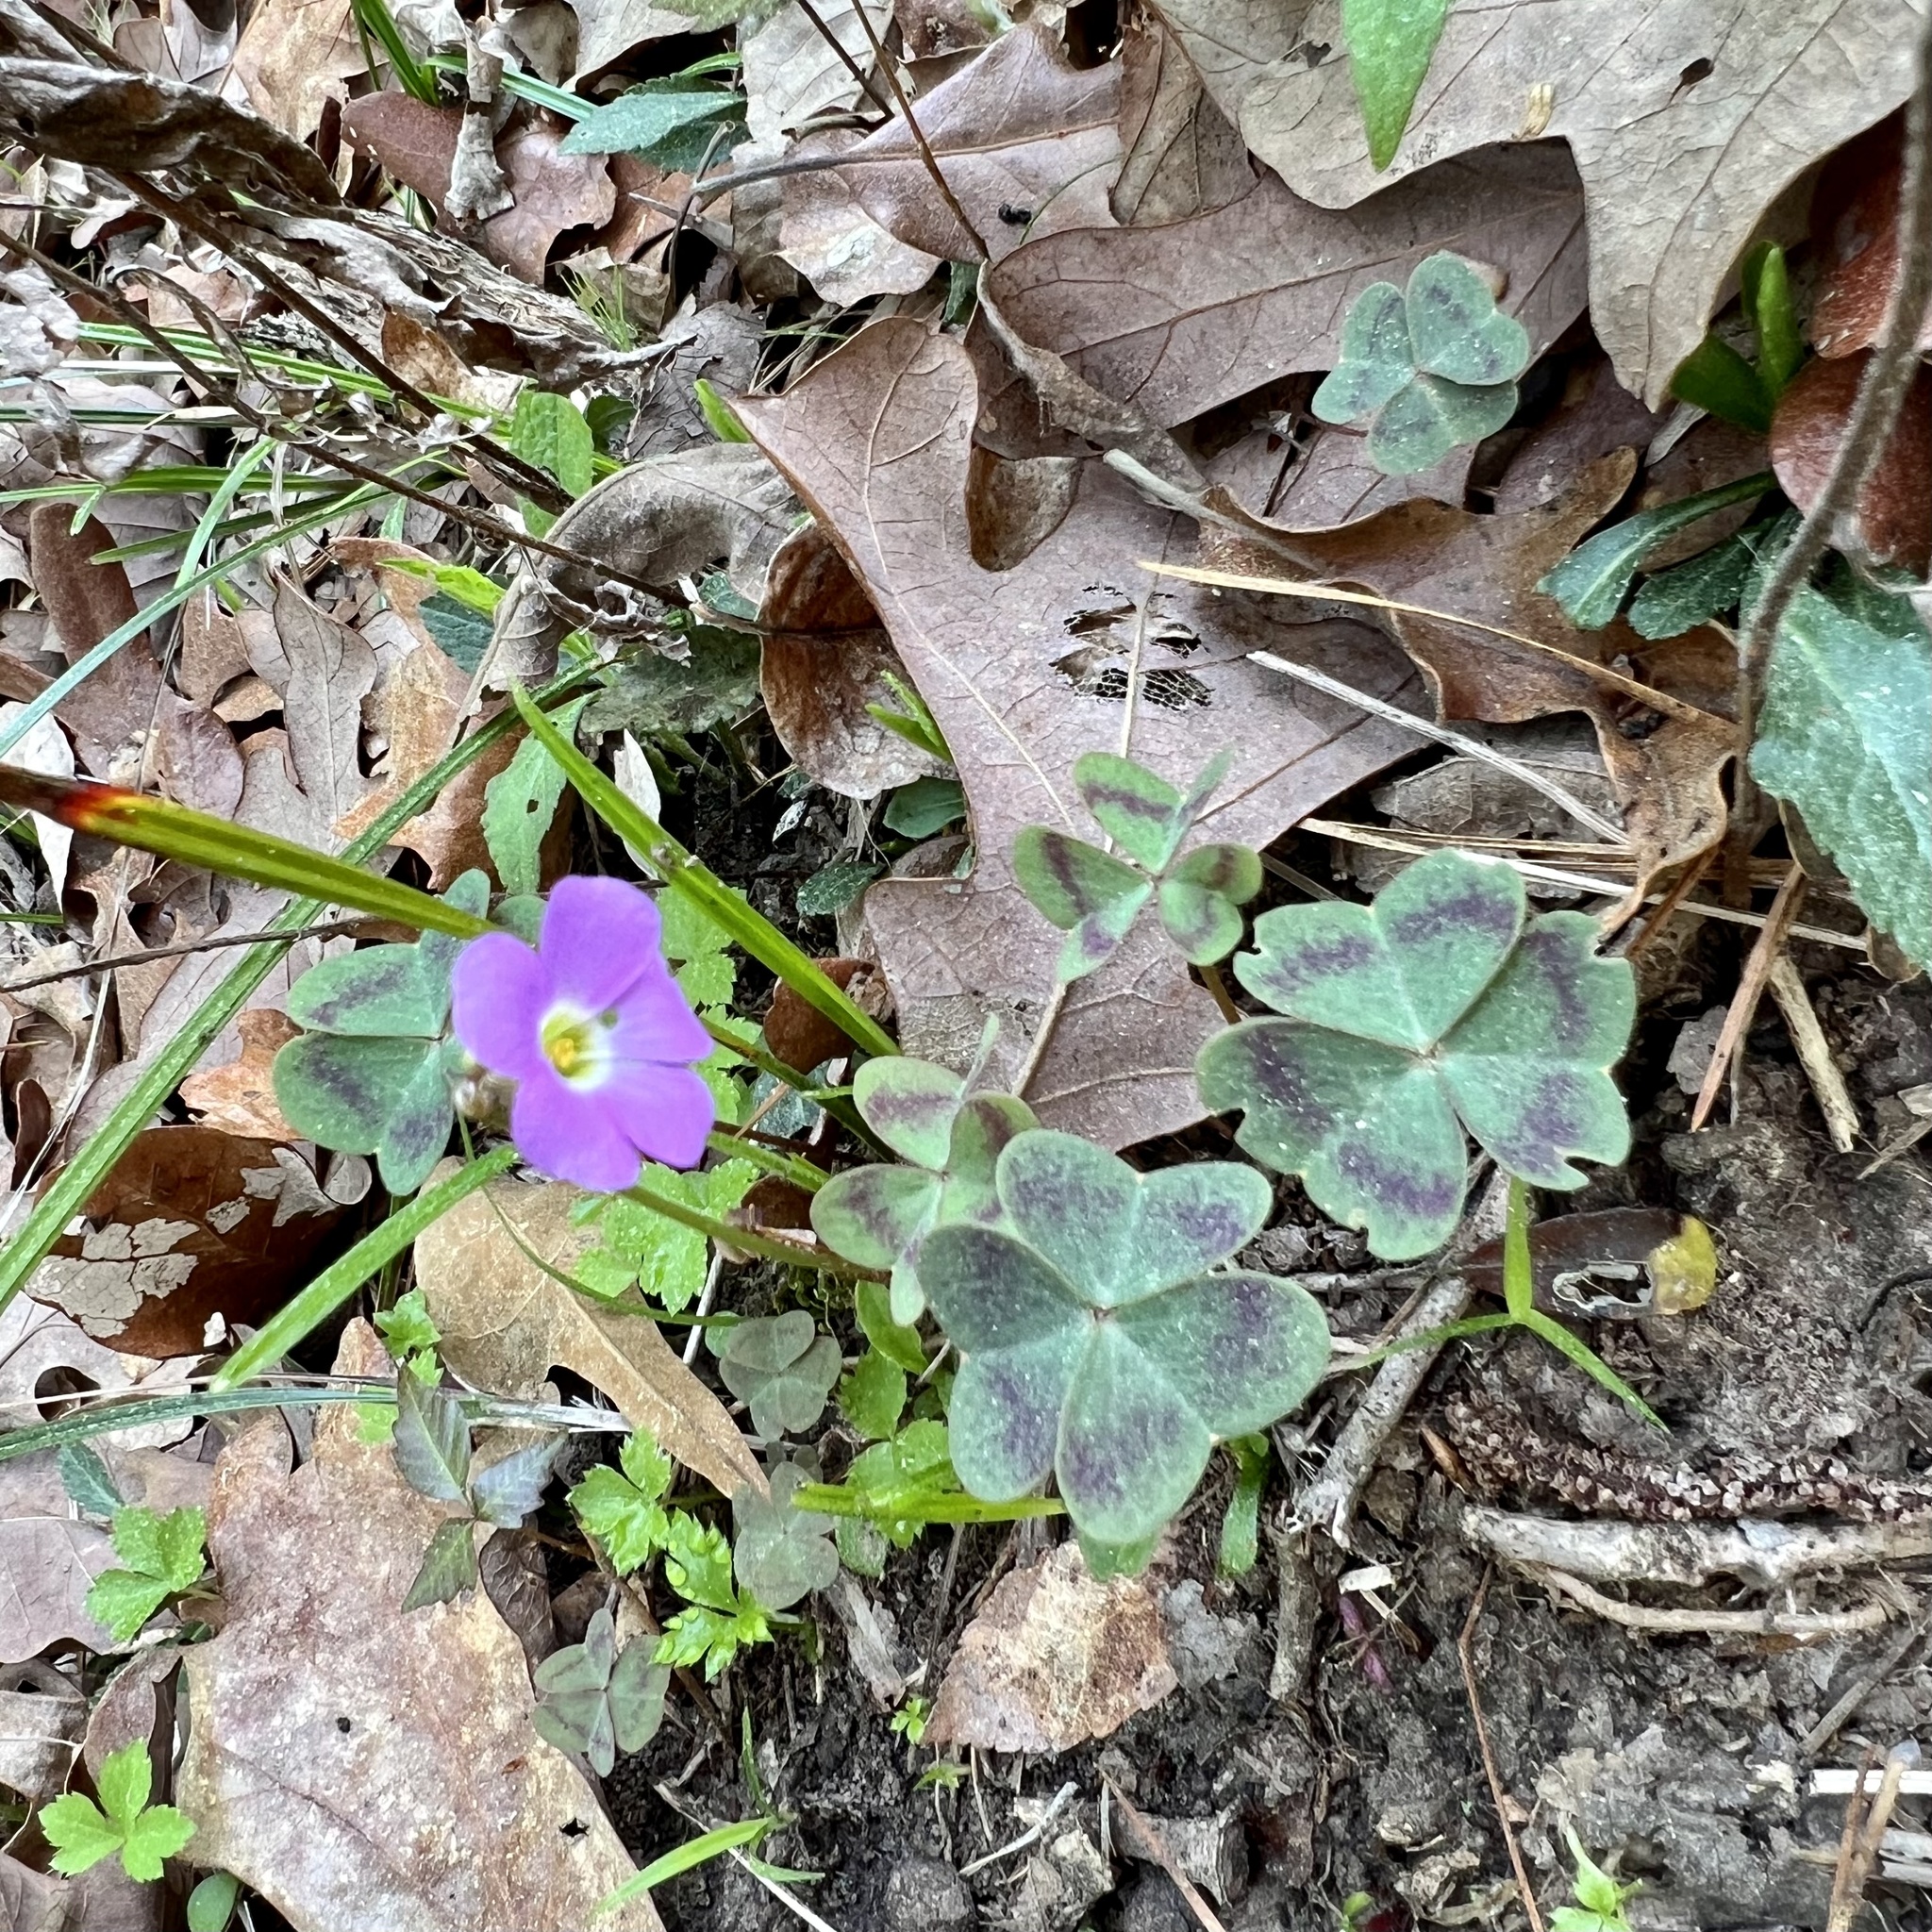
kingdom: Plantae
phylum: Tracheophyta
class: Magnoliopsida
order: Oxalidales
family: Oxalidaceae
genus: Oxalis
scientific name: Oxalis violacea
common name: Violet wood-sorrel
